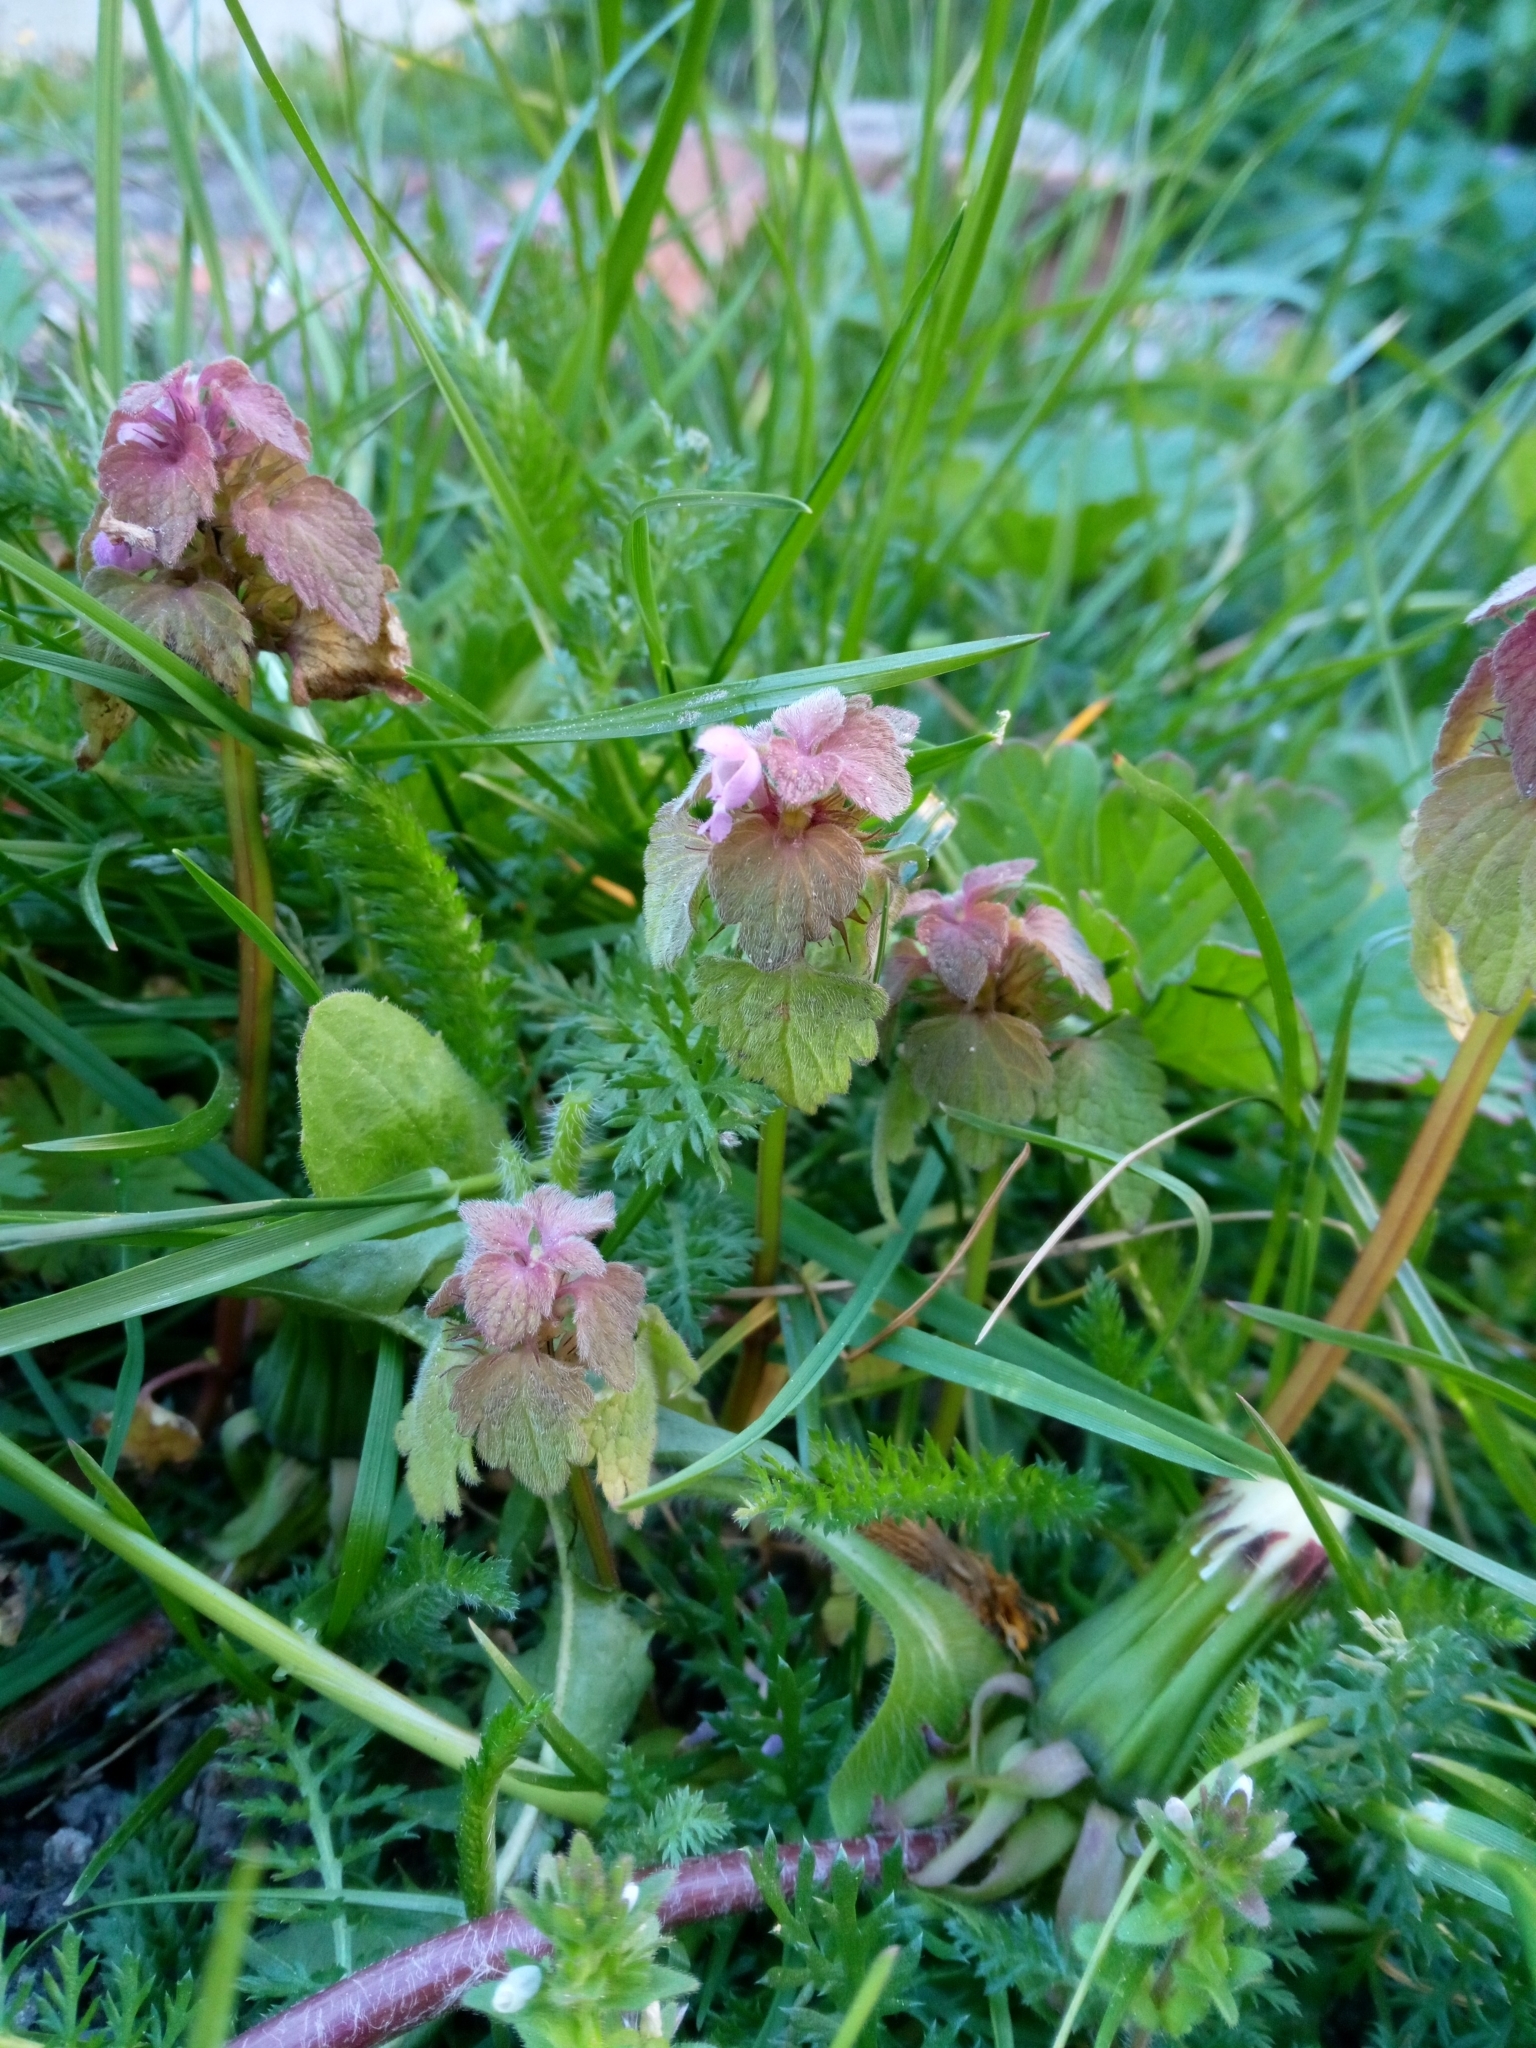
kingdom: Plantae
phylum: Tracheophyta
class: Magnoliopsida
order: Lamiales
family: Lamiaceae
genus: Lamium
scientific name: Lamium purpureum
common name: Red dead-nettle
